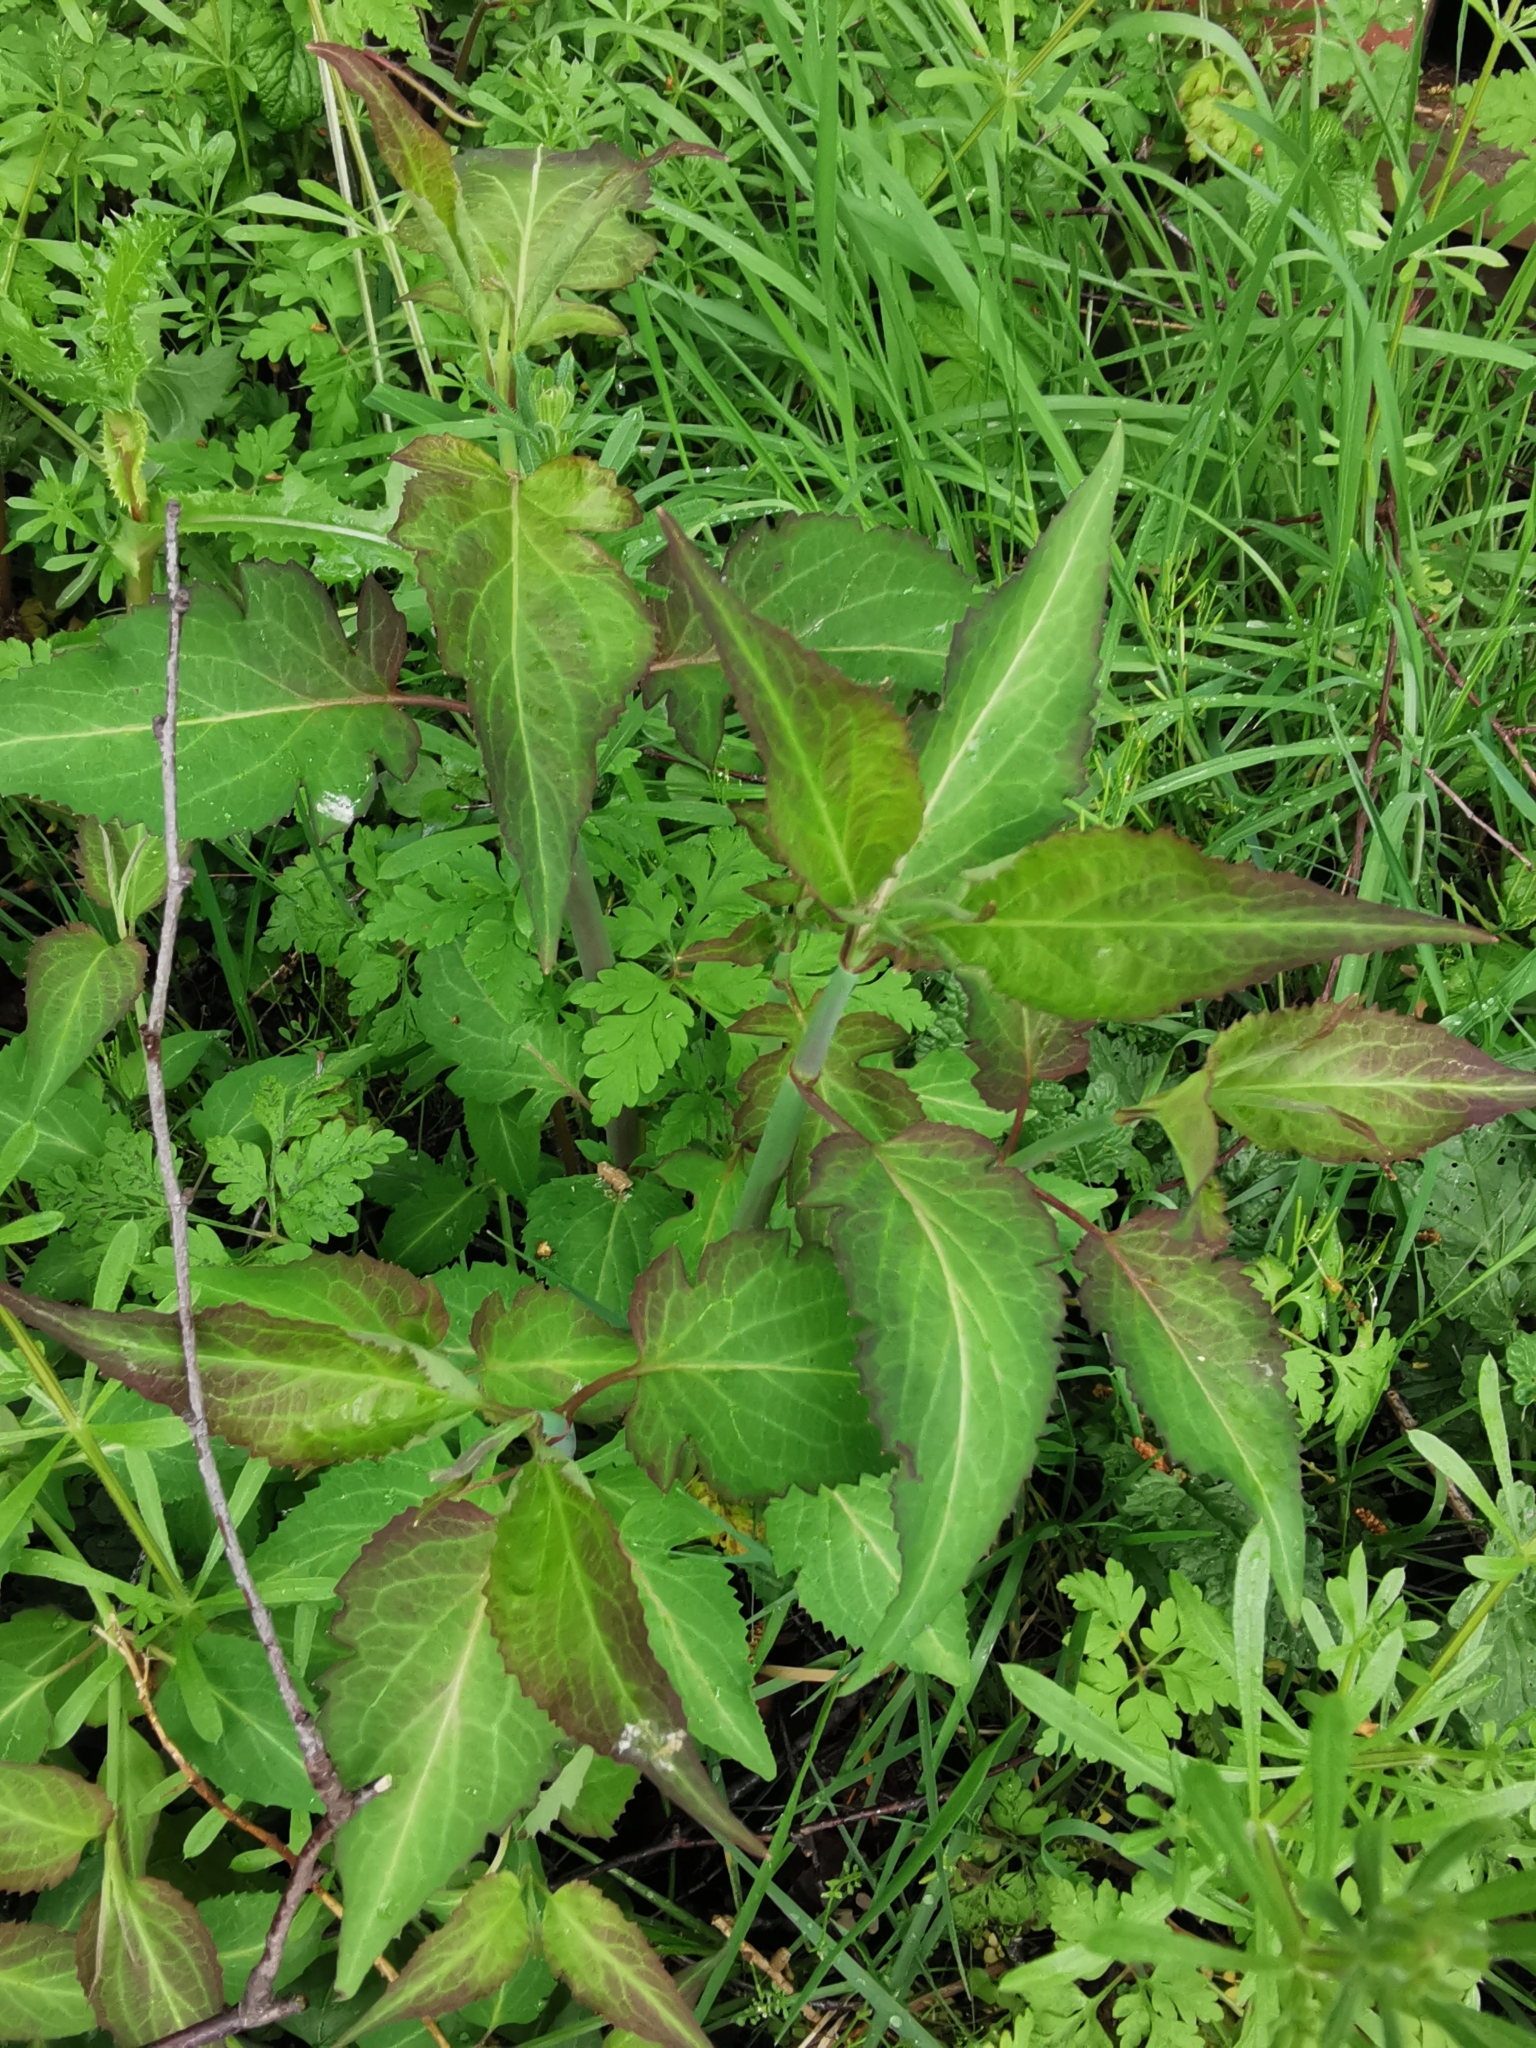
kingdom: Plantae
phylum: Tracheophyta
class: Magnoliopsida
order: Dipsacales
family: Caprifoliaceae
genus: Leycesteria
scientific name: Leycesteria formosa
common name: Himalayan honeysuckle
